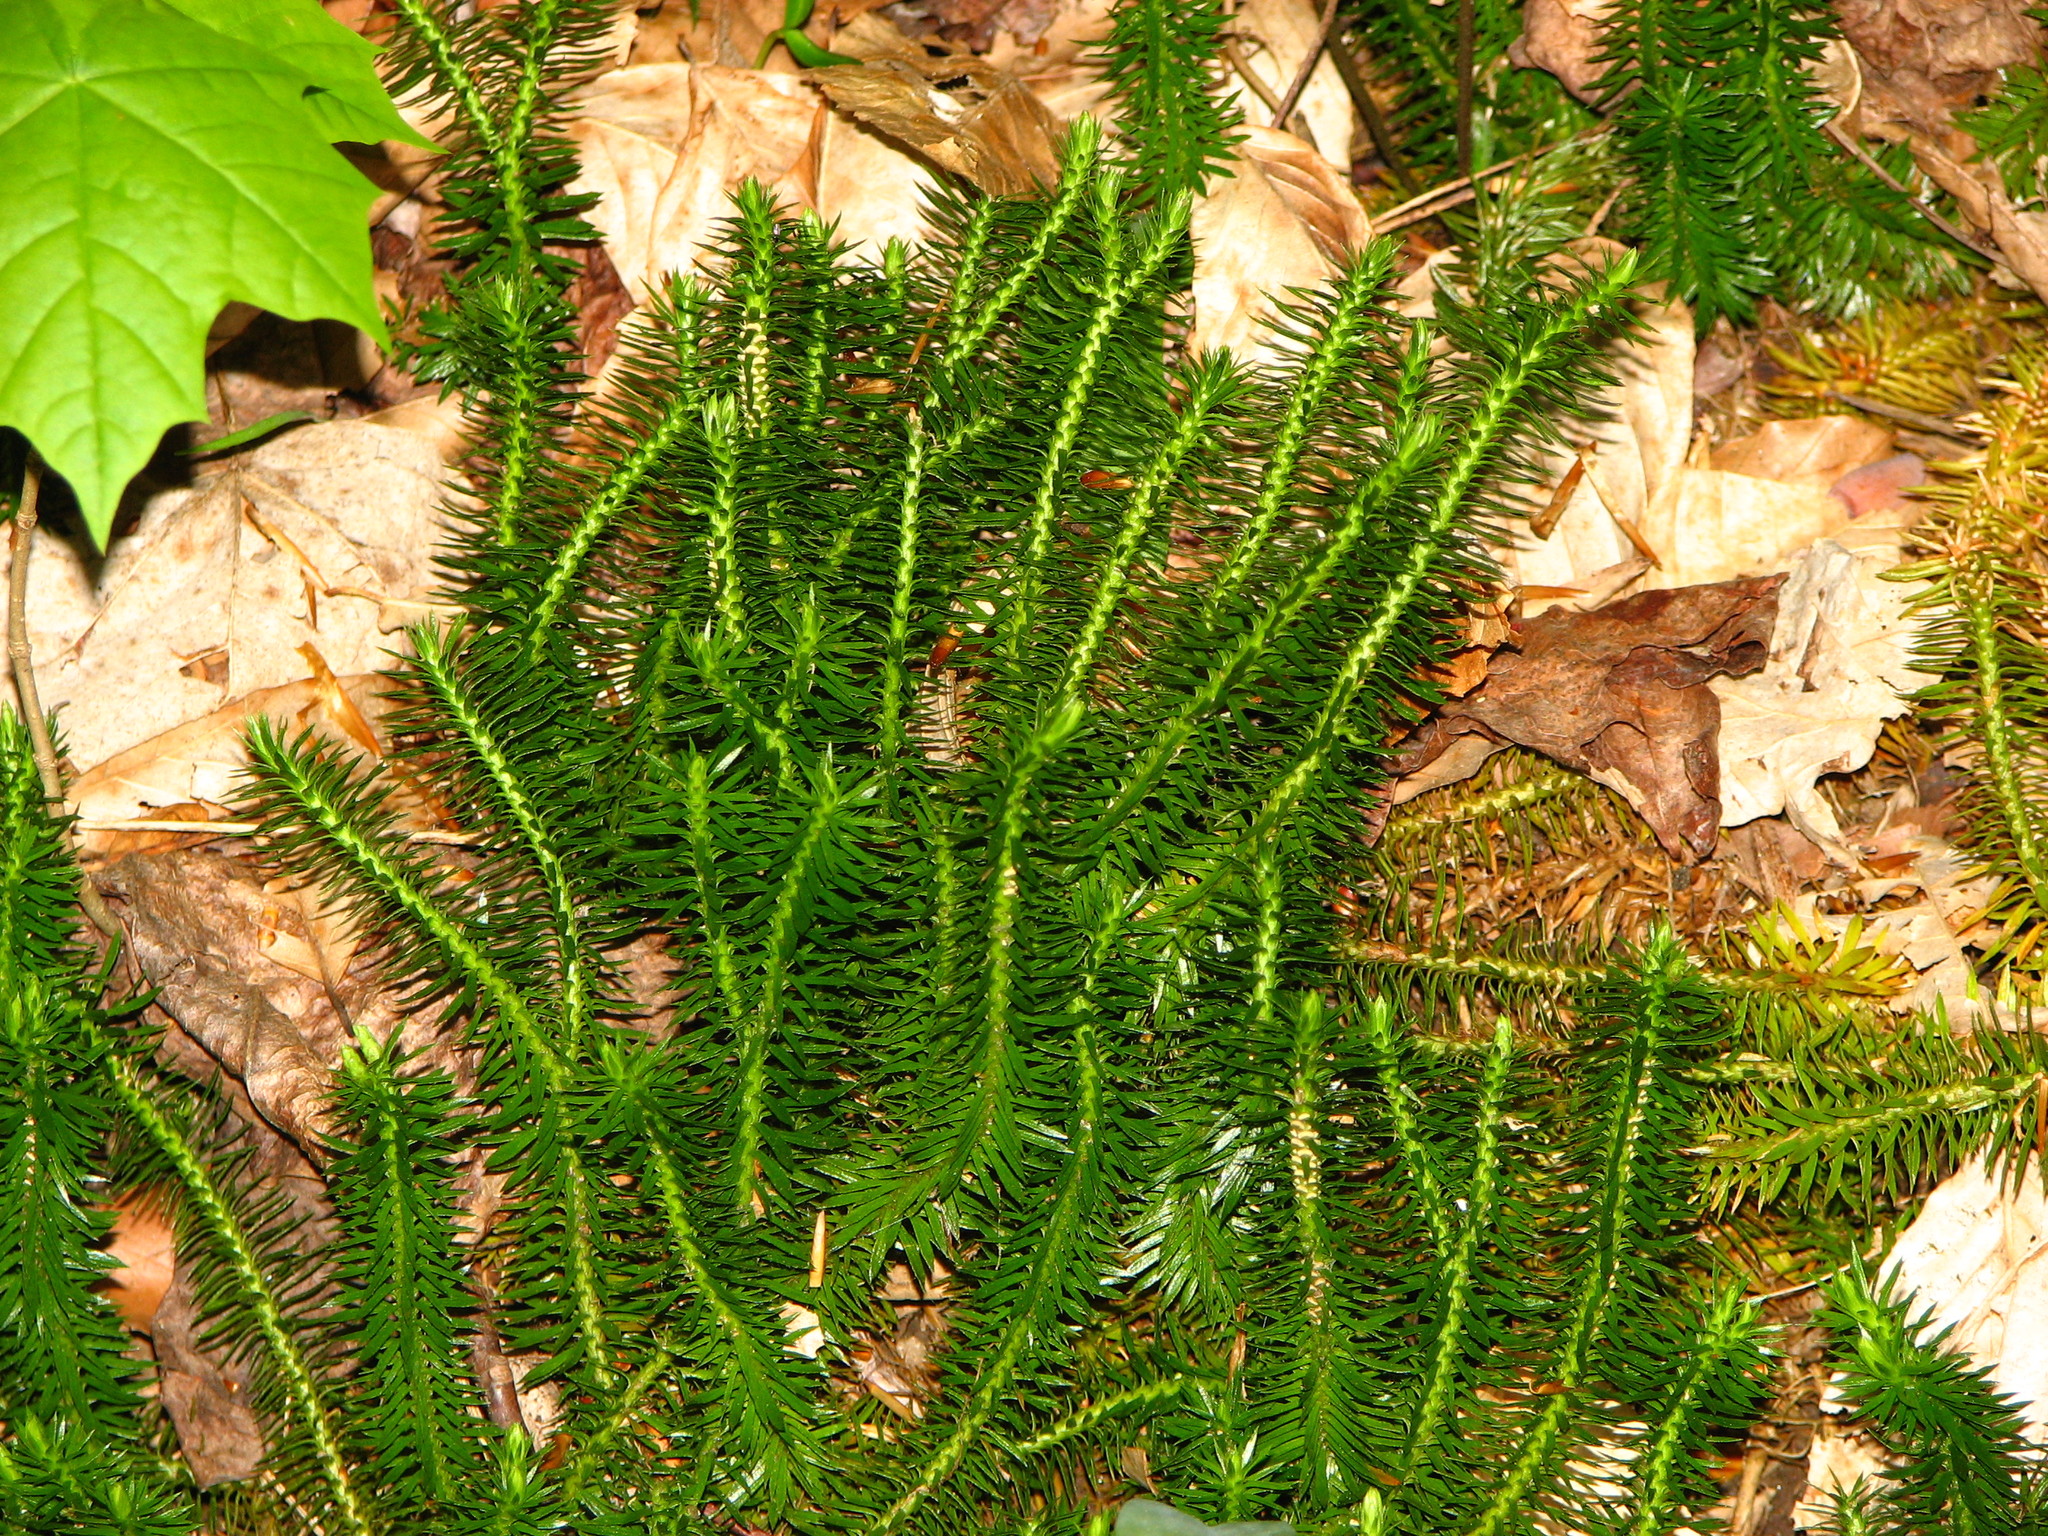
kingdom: Plantae
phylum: Tracheophyta
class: Lycopodiopsida
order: Lycopodiales
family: Lycopodiaceae
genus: Huperzia
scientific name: Huperzia lucidula
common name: Shining clubmoss
